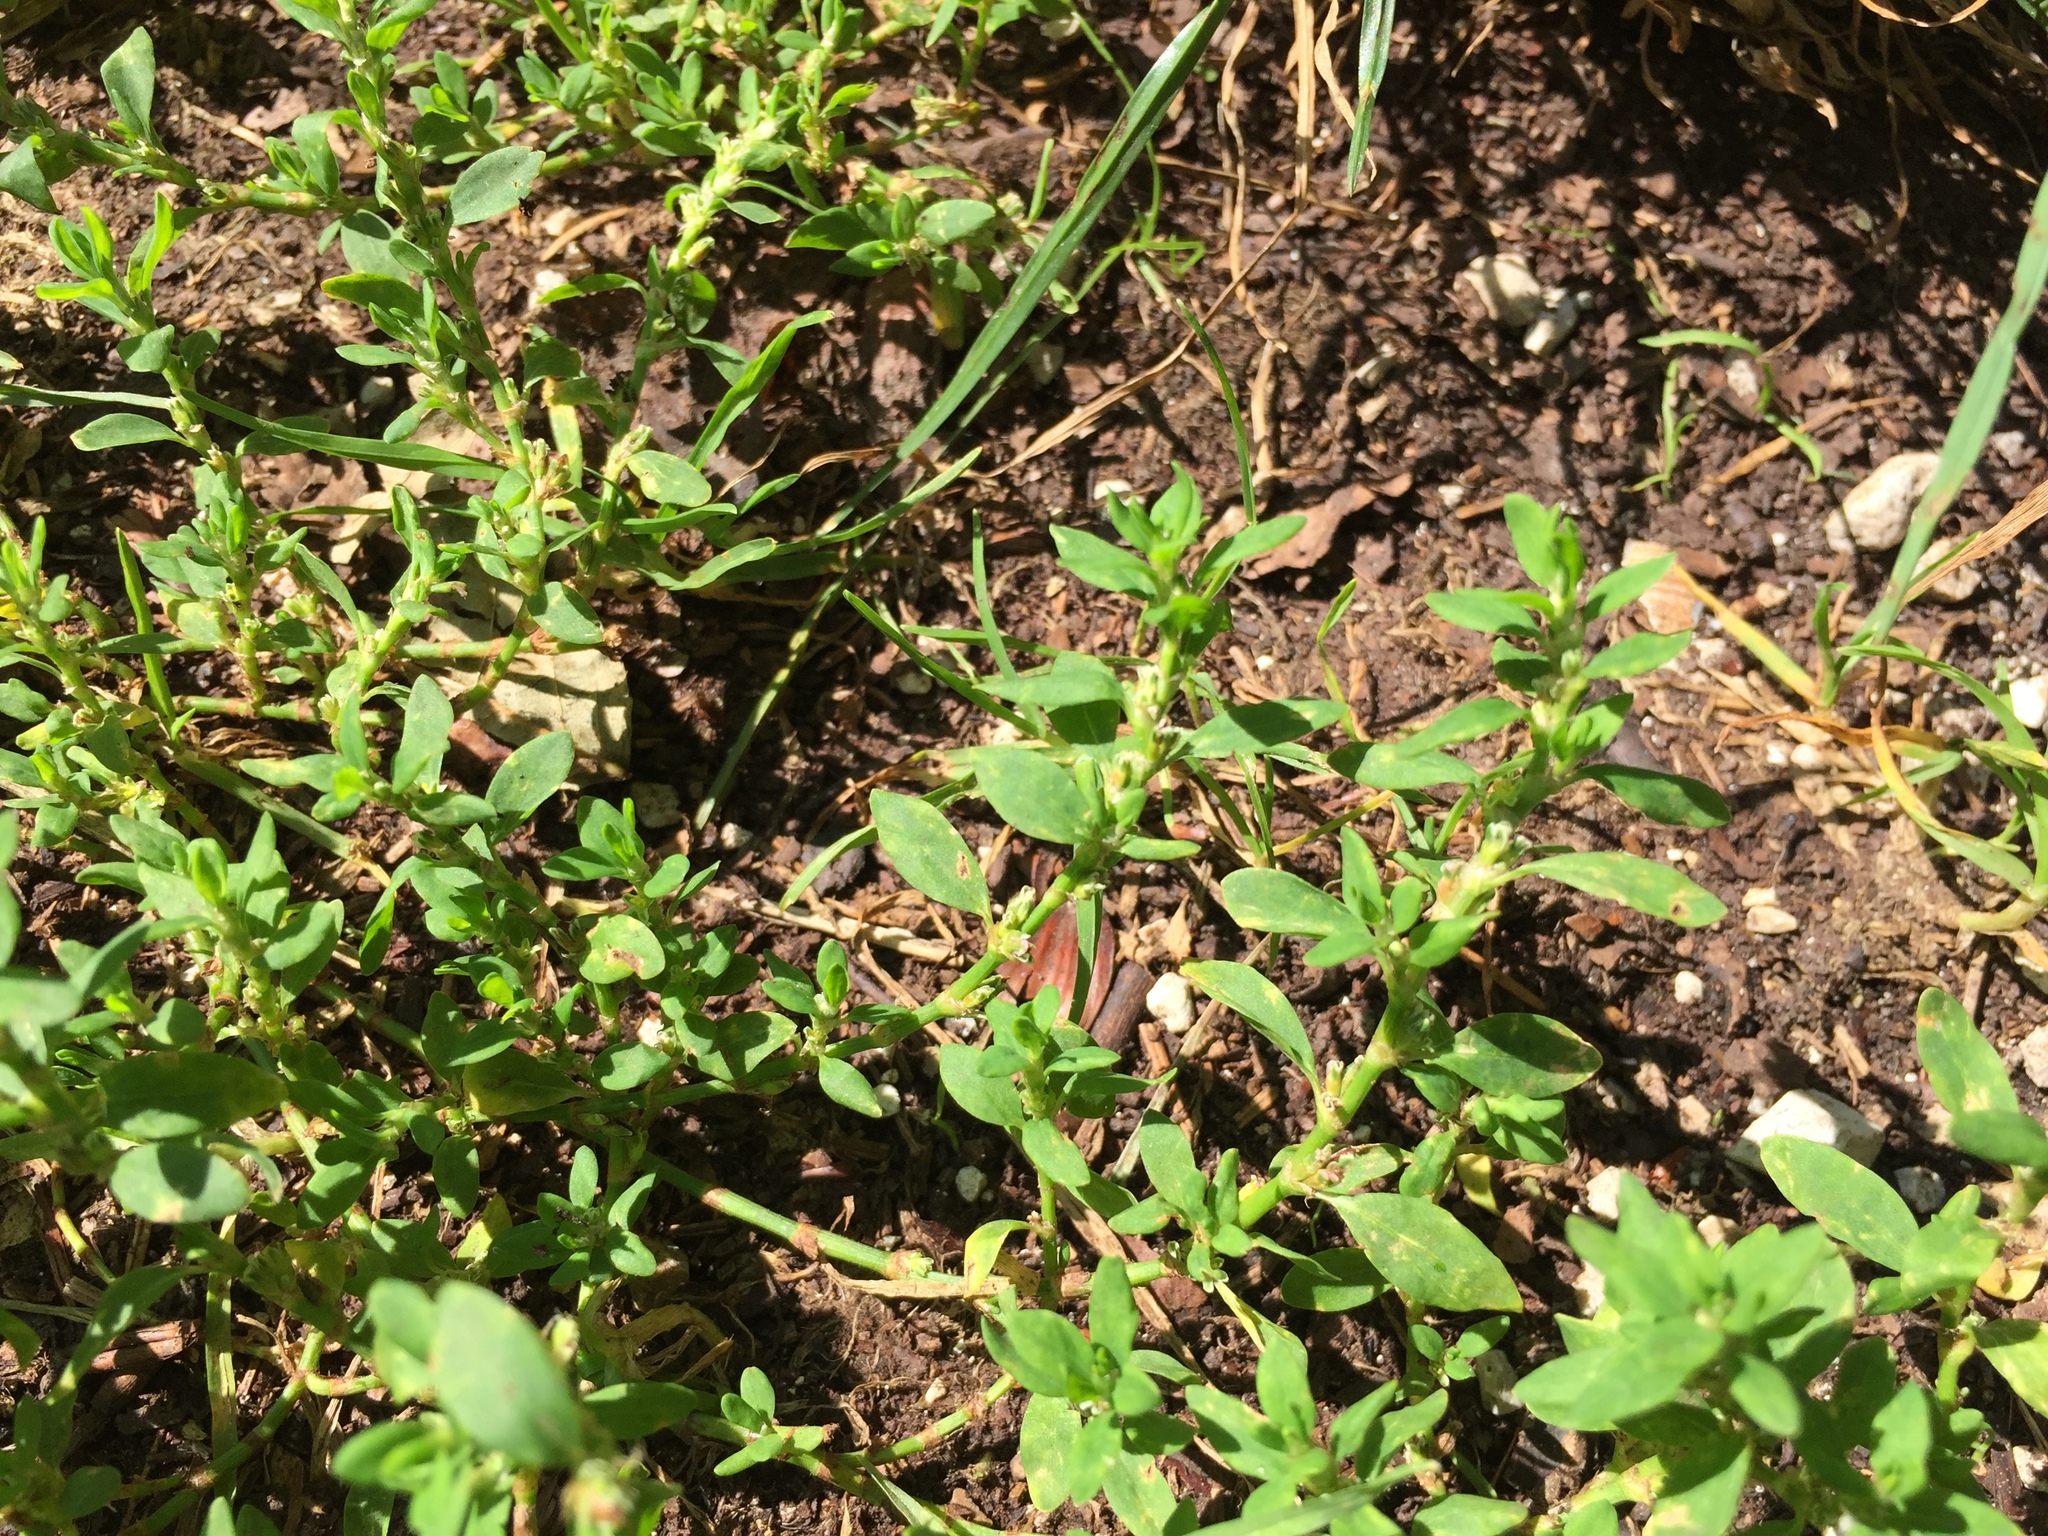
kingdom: Plantae
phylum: Tracheophyta
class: Magnoliopsida
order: Caryophyllales
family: Polygonaceae
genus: Polygonum
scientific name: Polygonum aviculare
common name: Prostrate knotweed
